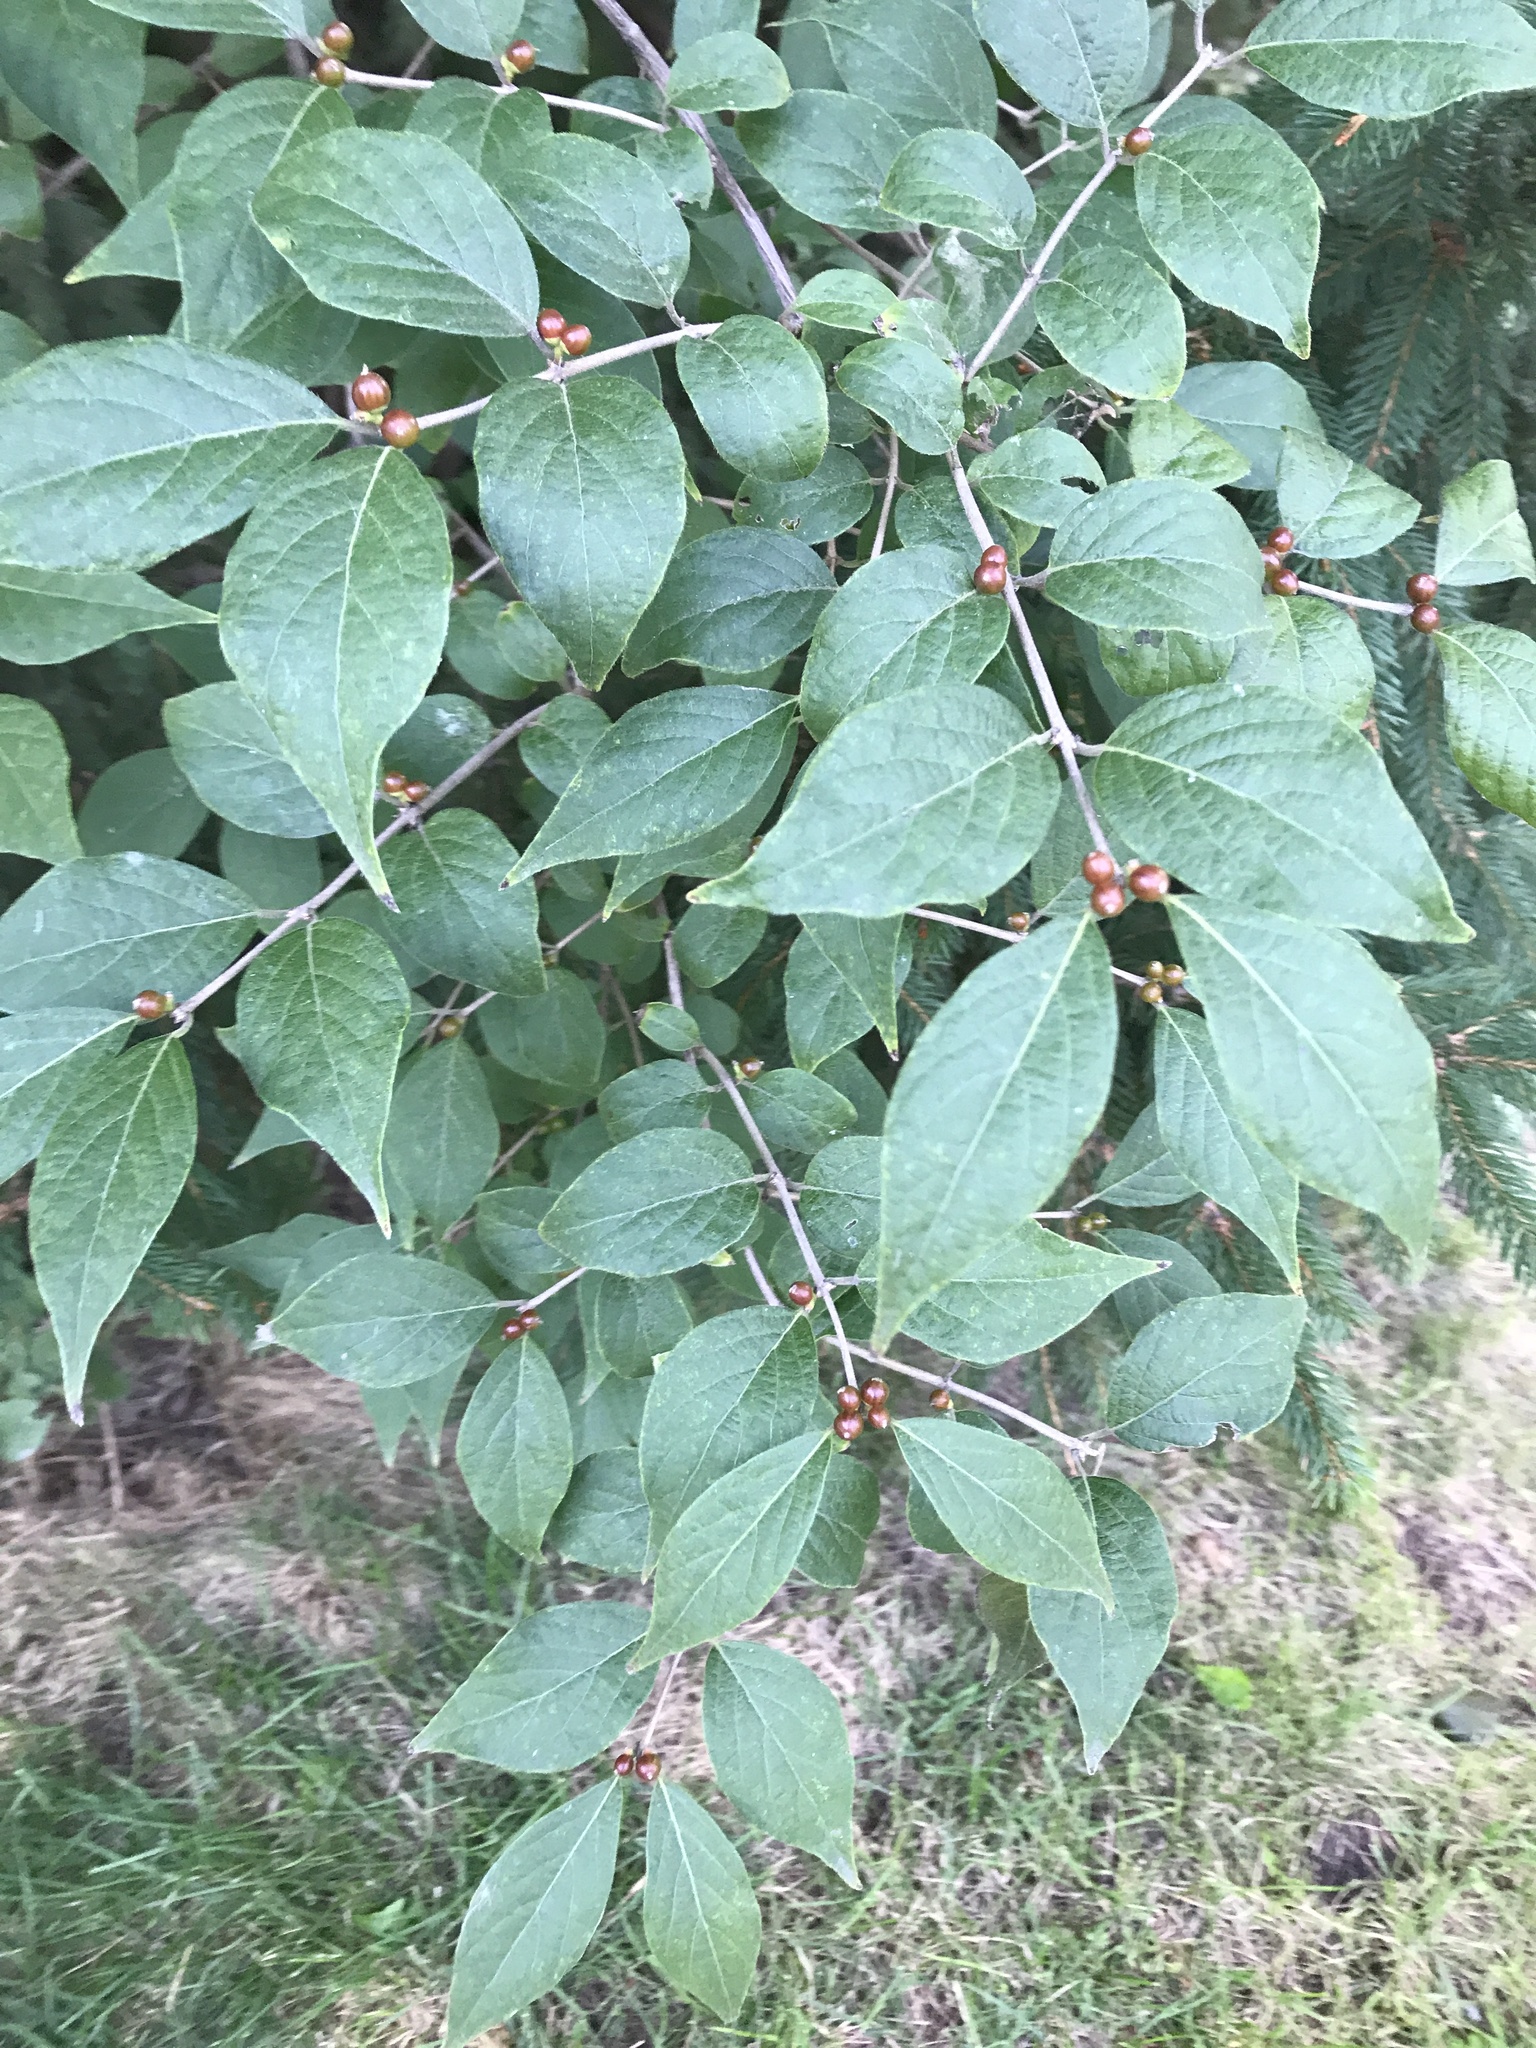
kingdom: Plantae
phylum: Tracheophyta
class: Magnoliopsida
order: Dipsacales
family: Caprifoliaceae
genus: Lonicera
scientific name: Lonicera maackii
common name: Amur honeysuckle
